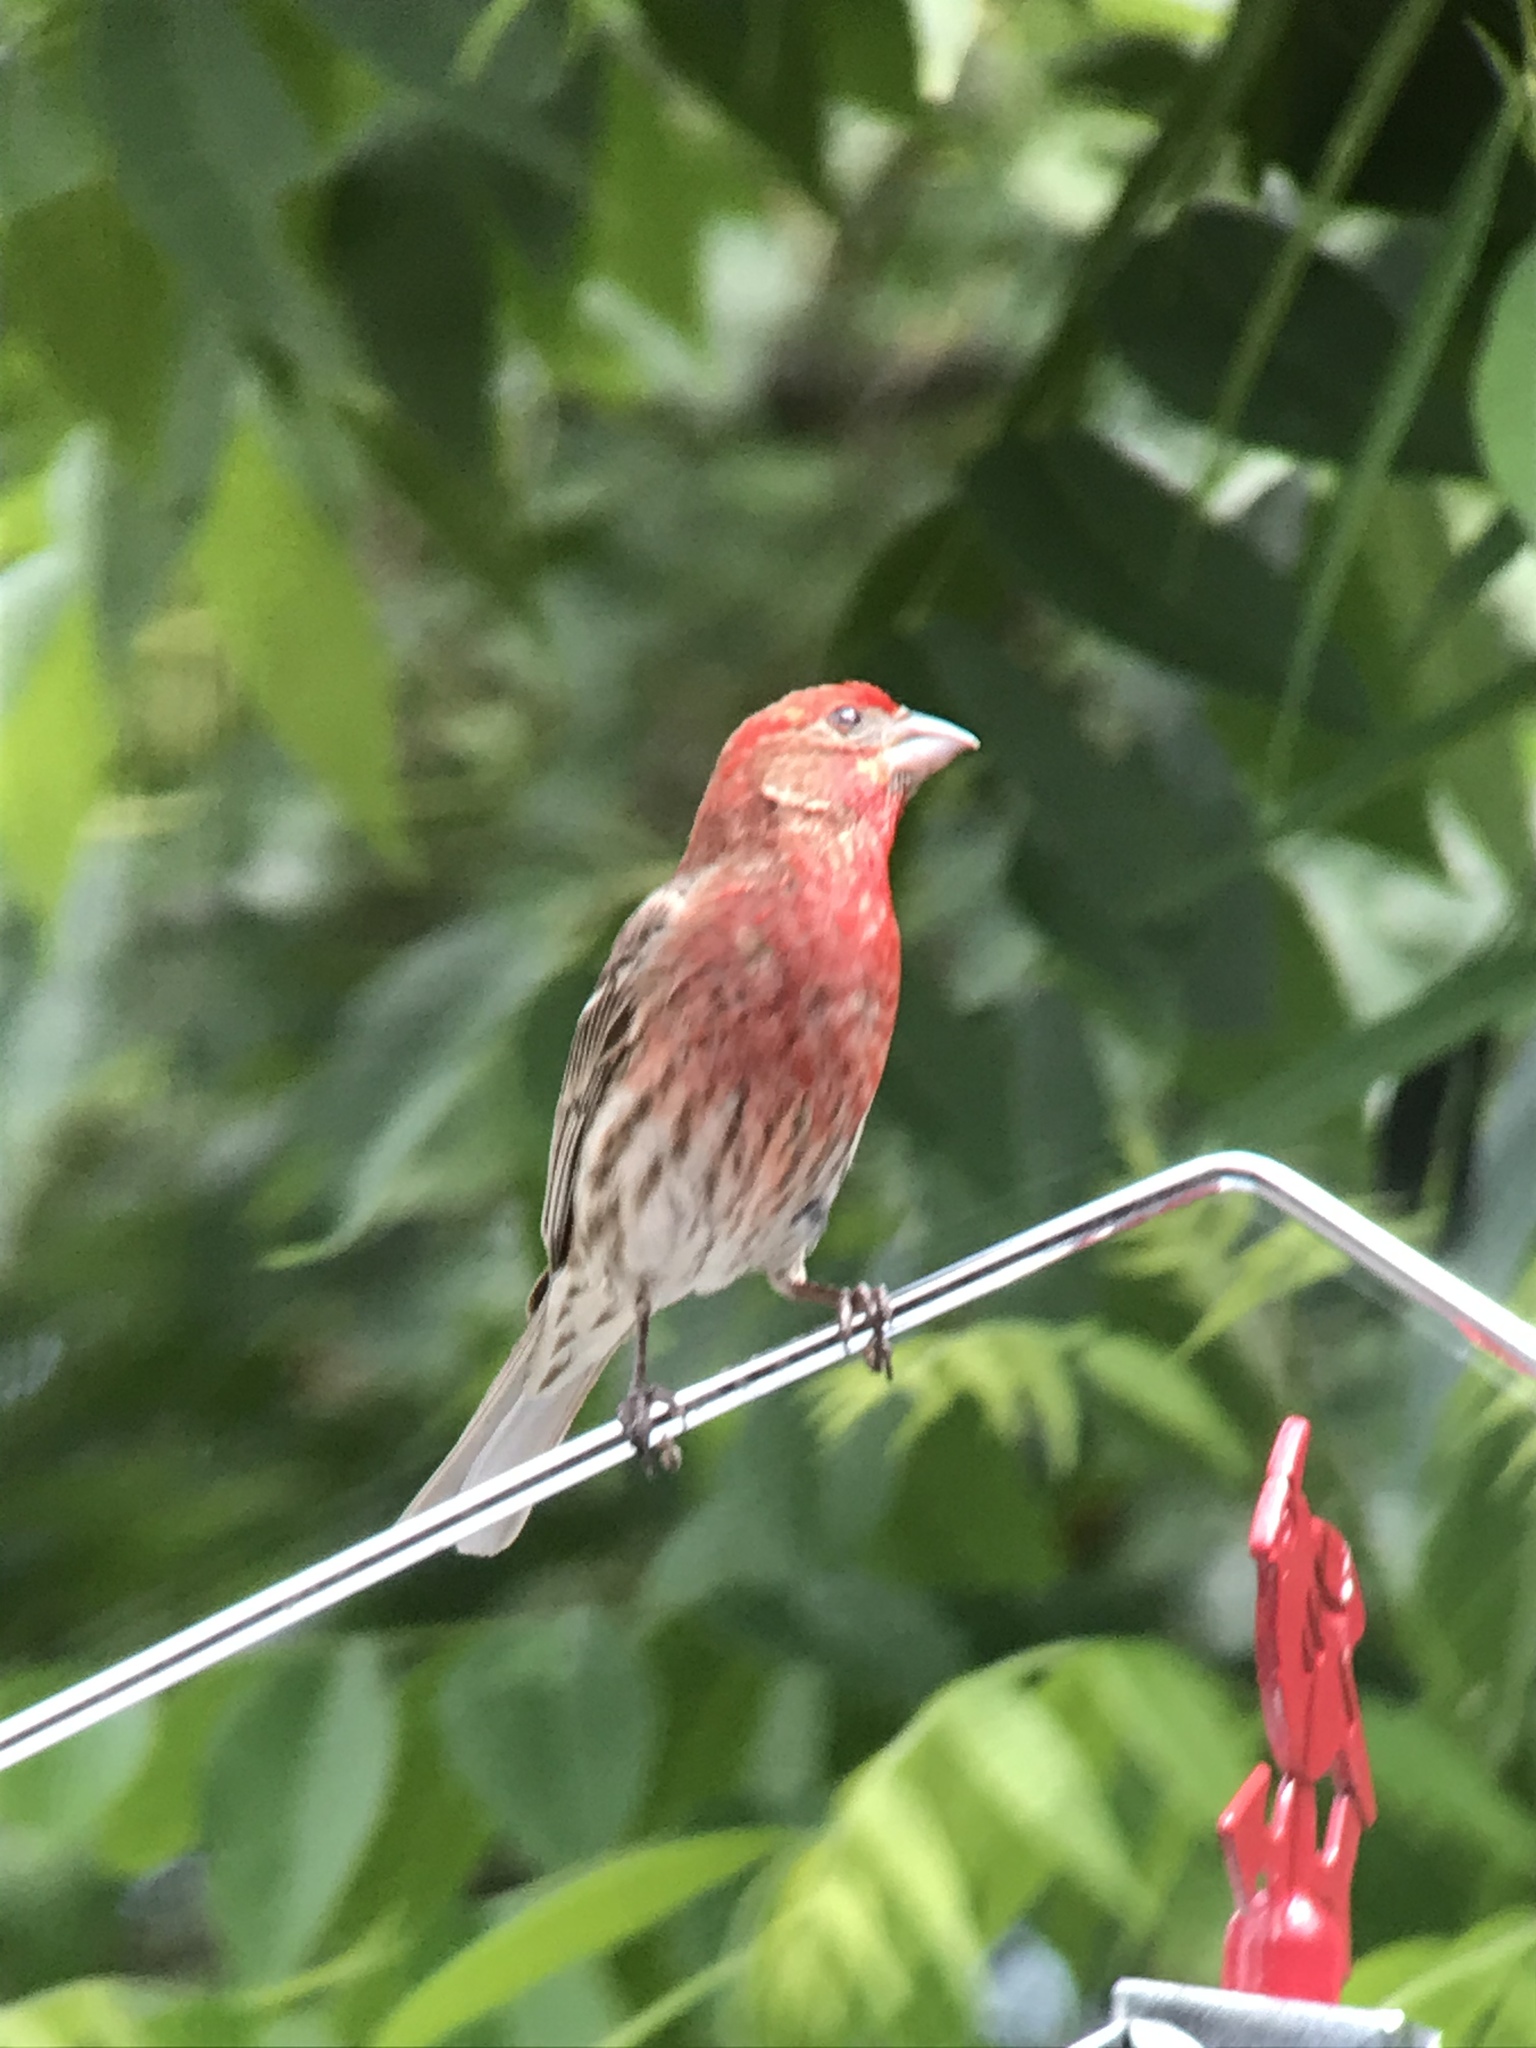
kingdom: Animalia
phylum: Chordata
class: Aves
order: Passeriformes
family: Fringillidae
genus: Haemorhous
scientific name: Haemorhous mexicanus
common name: House finch
